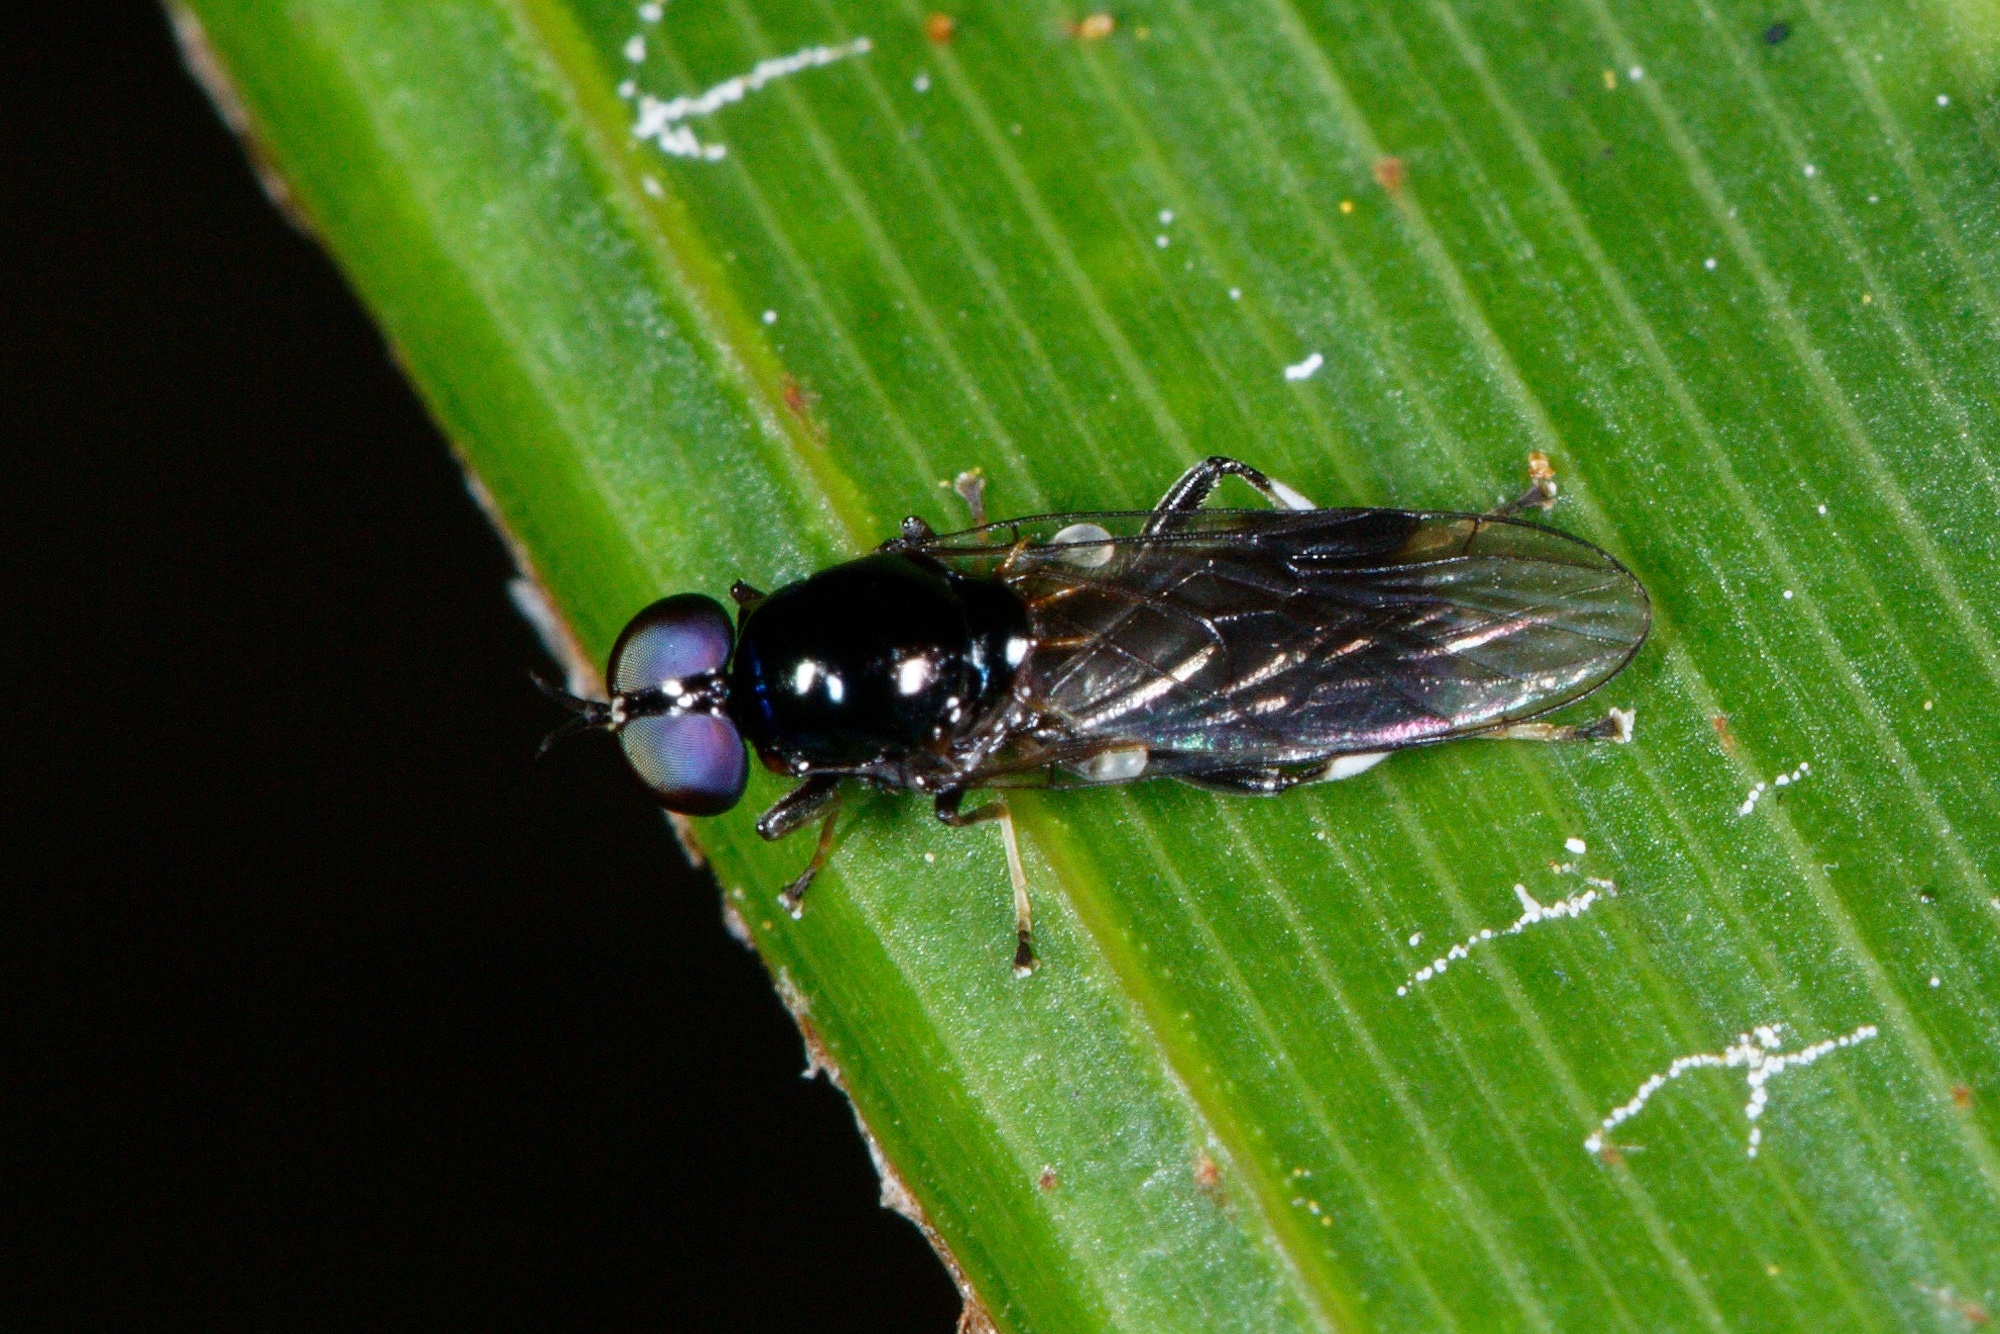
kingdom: Animalia
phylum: Arthropoda
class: Insecta
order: Diptera
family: Stratiomyidae
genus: Zealandoberis
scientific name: Zealandoberis lacuans
